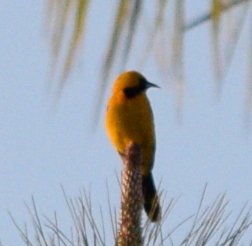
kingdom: Animalia
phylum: Chordata
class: Aves
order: Passeriformes
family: Icteridae
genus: Icterus
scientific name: Icterus cucullatus
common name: Hooded oriole
